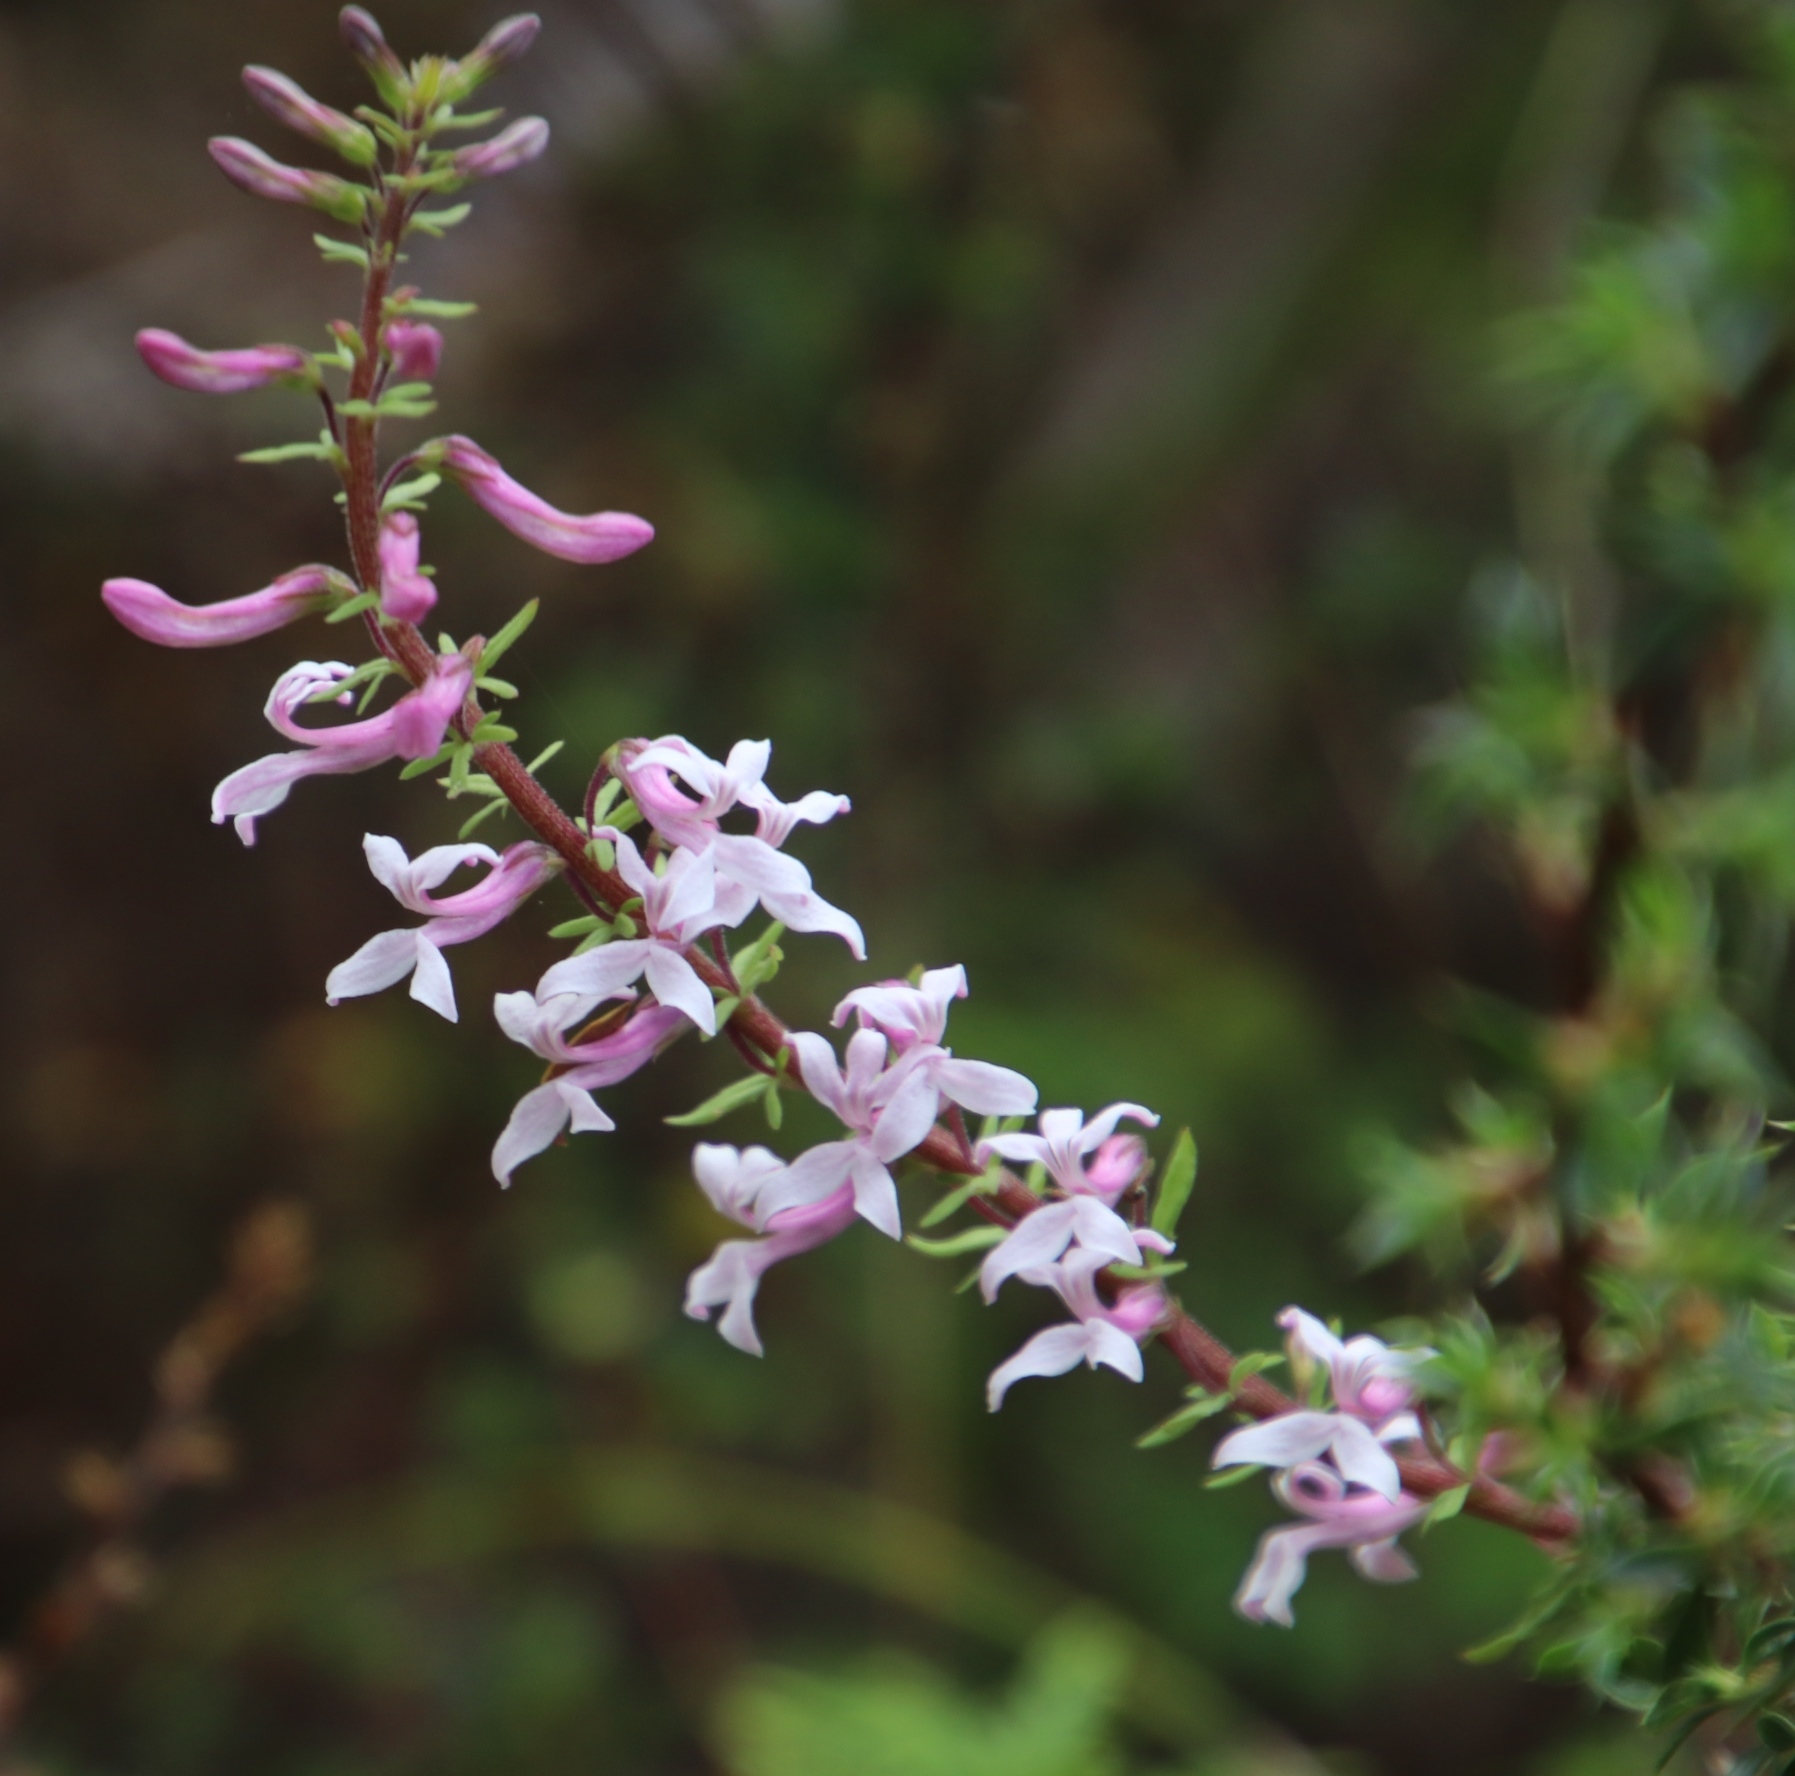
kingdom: Plantae
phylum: Tracheophyta
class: Magnoliopsida
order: Asterales
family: Campanulaceae
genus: Cyphia
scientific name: Cyphia bulbosa
